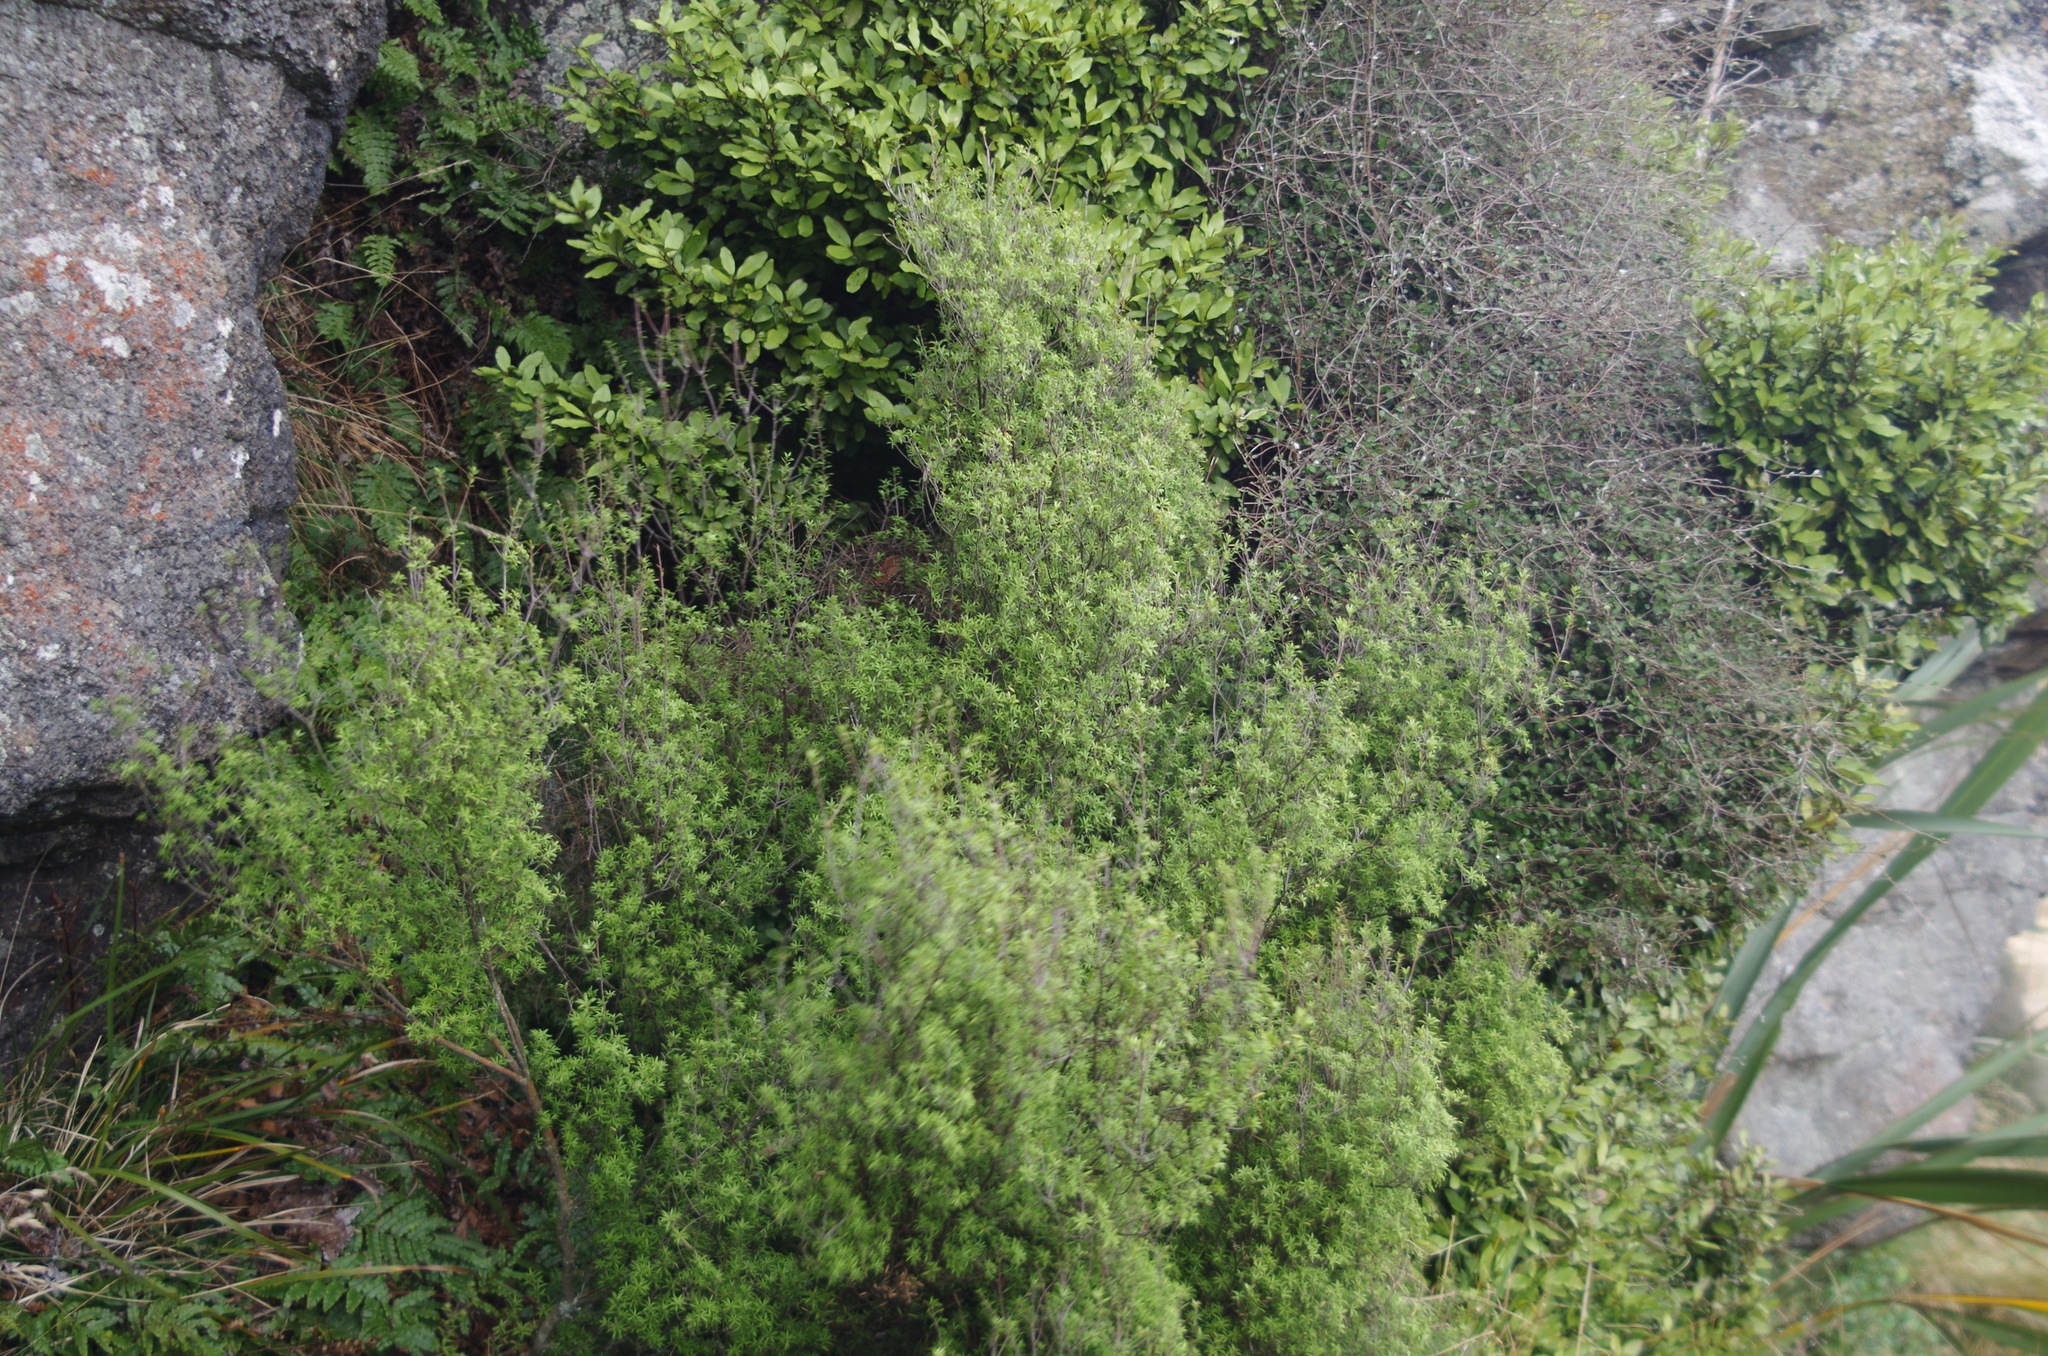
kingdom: Plantae
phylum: Tracheophyta
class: Magnoliopsida
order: Myrtales
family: Myrtaceae
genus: Kunzea
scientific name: Kunzea robusta
